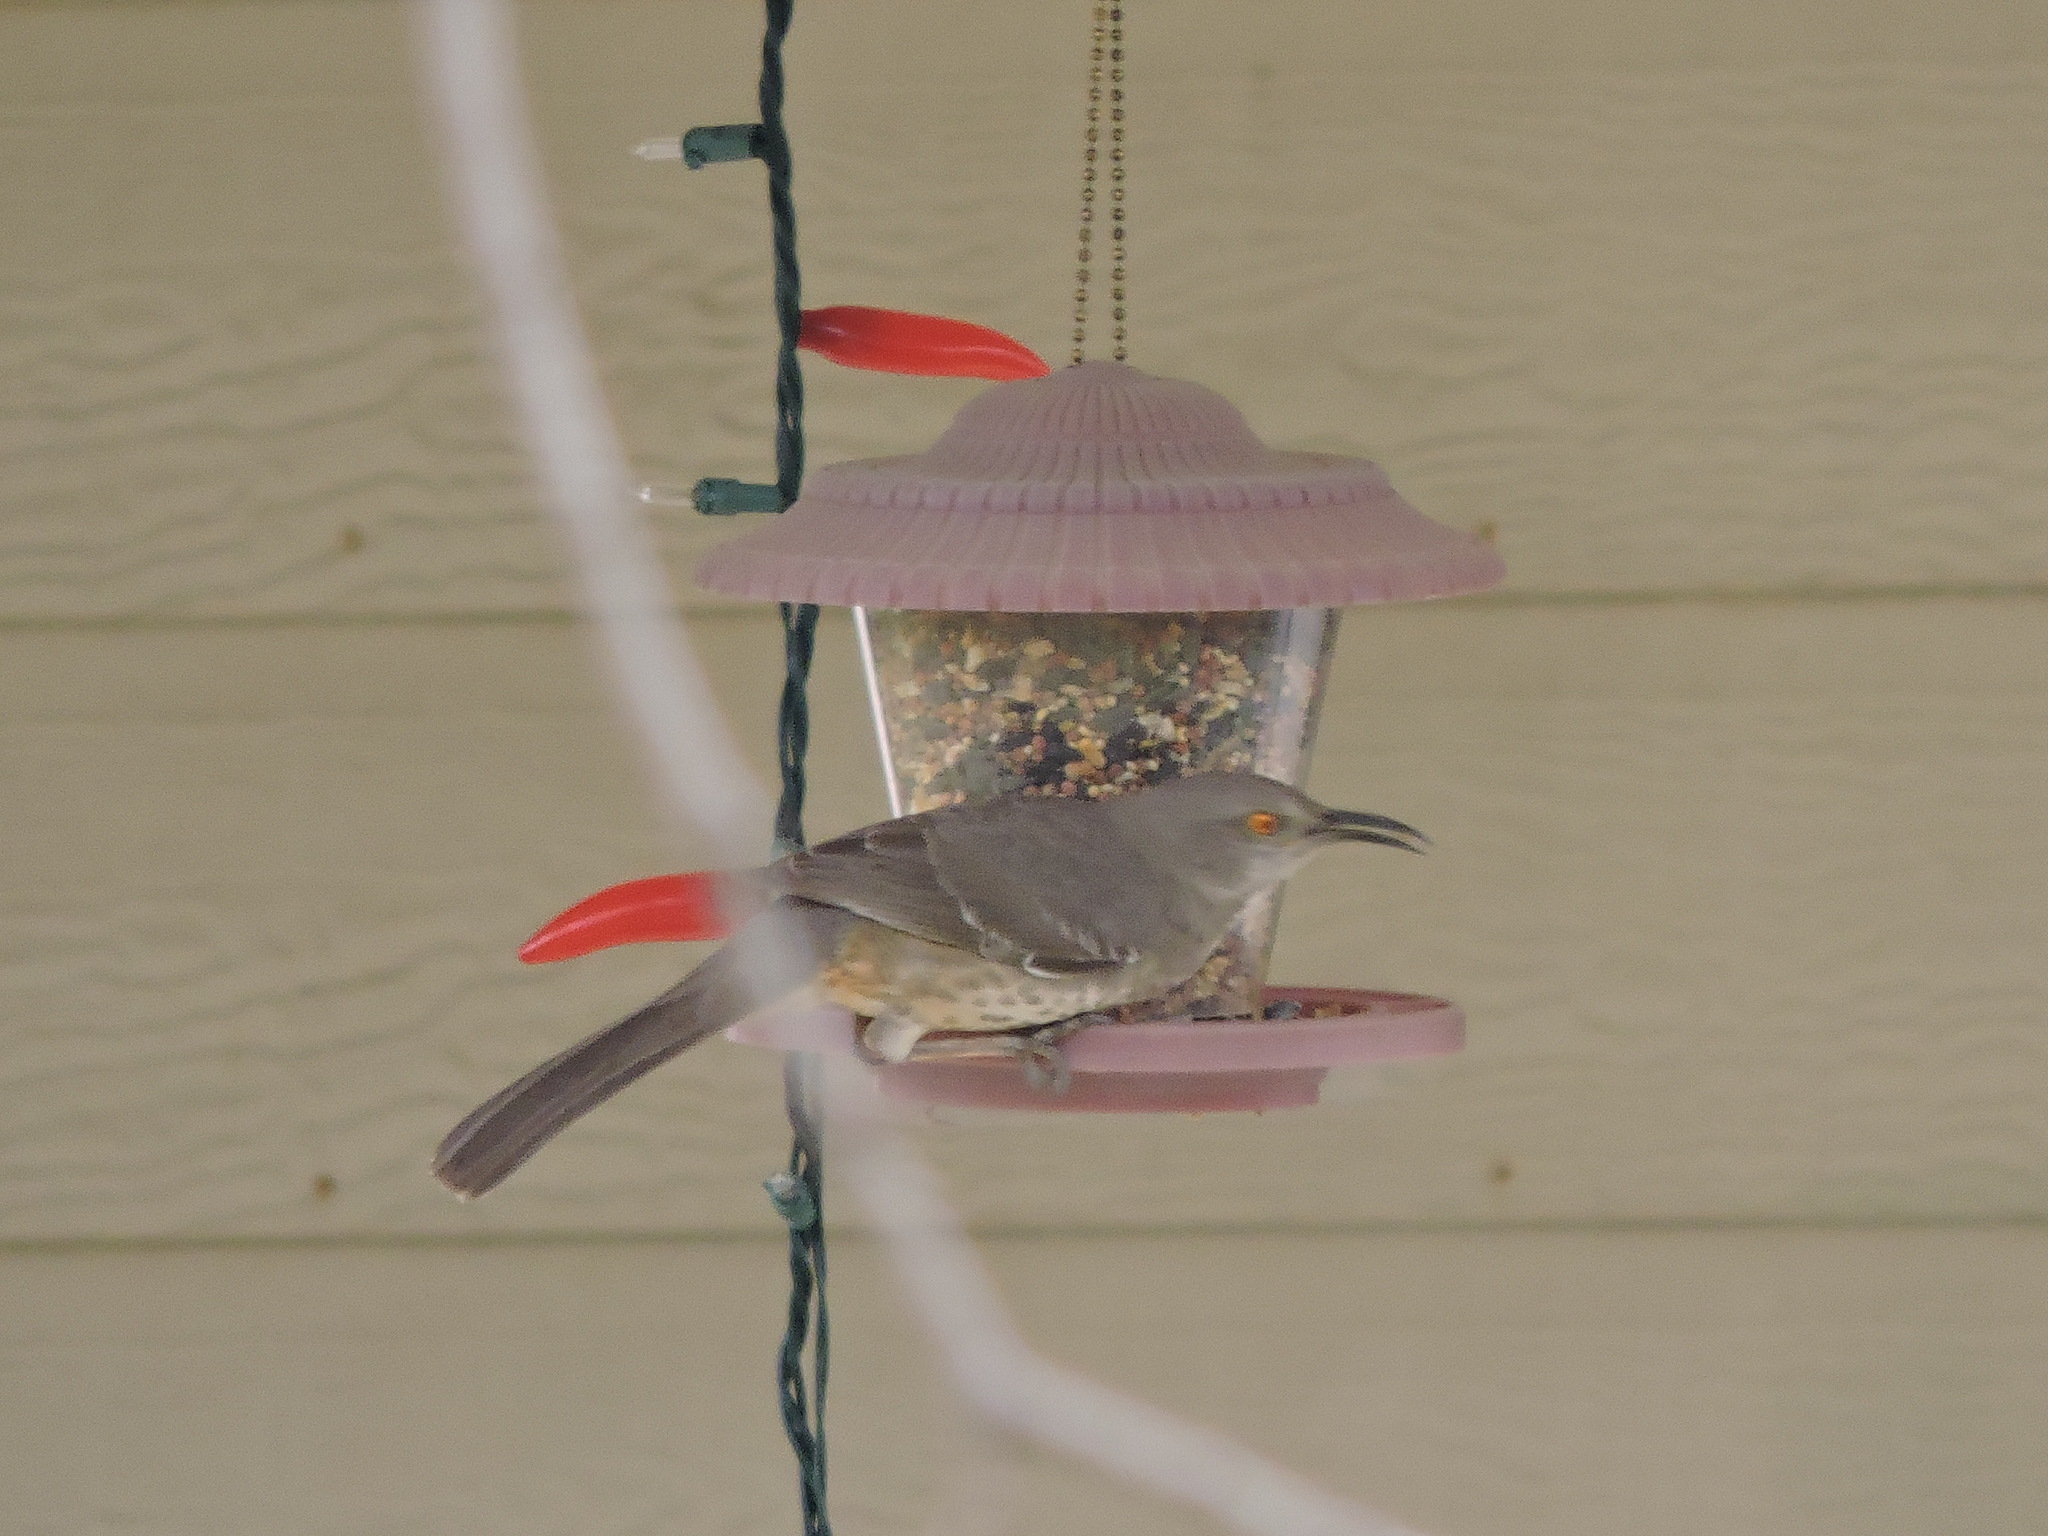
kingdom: Animalia
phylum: Chordata
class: Aves
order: Passeriformes
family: Mimidae
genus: Toxostoma
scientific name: Toxostoma curvirostre
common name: Curve-billed thrasher
